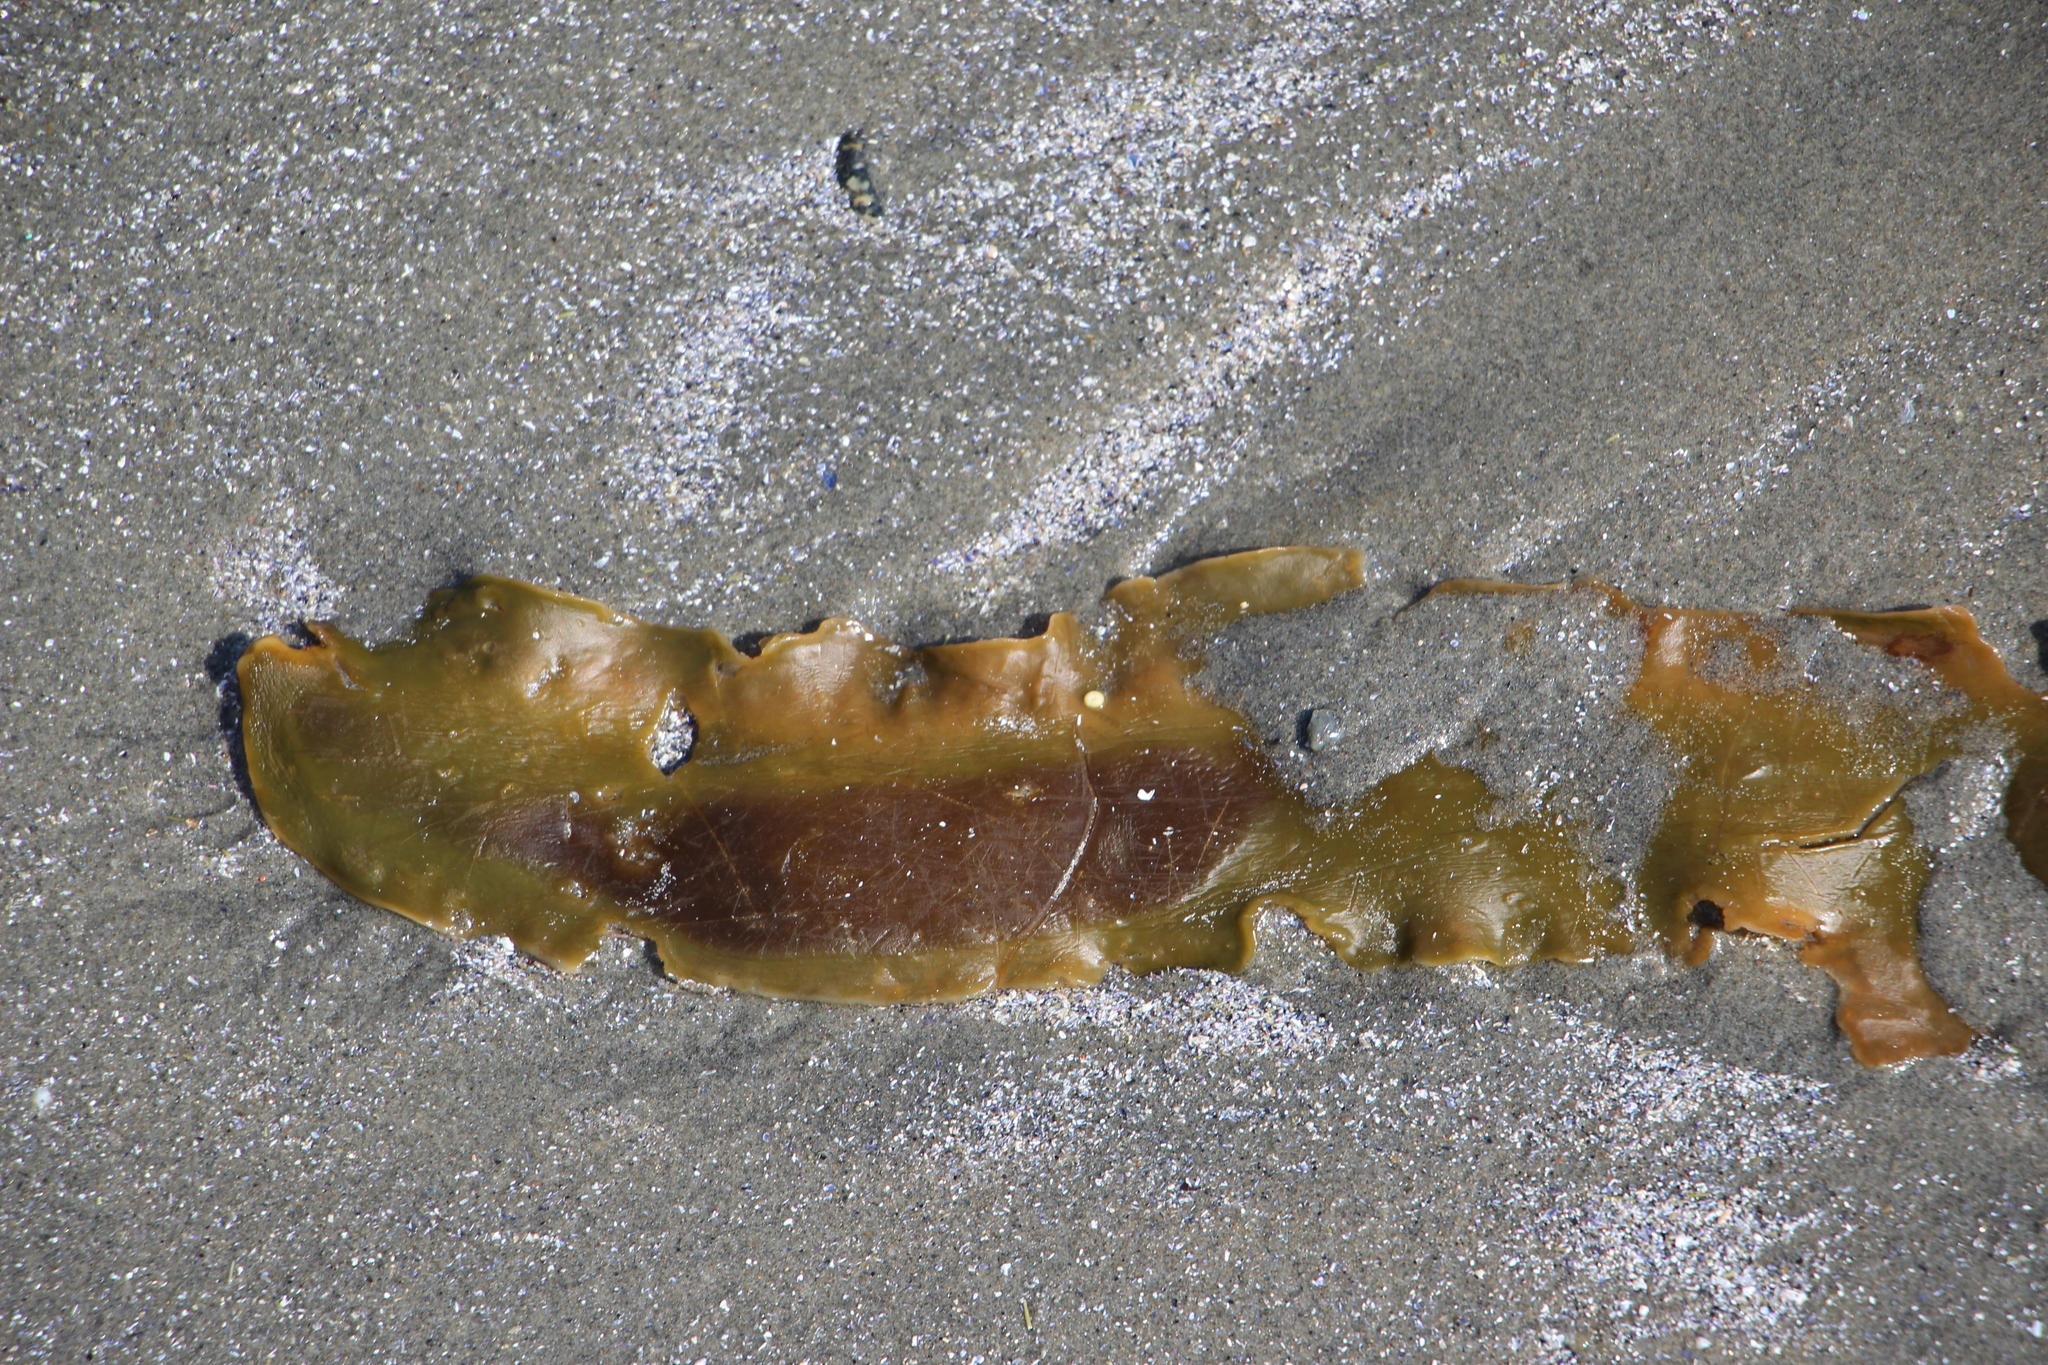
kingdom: Chromista
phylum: Ochrophyta
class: Phaeophyceae
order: Laminariales
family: Laminariaceae
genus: Saccharina
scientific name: Saccharina latissima
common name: Poor man's weather glass
